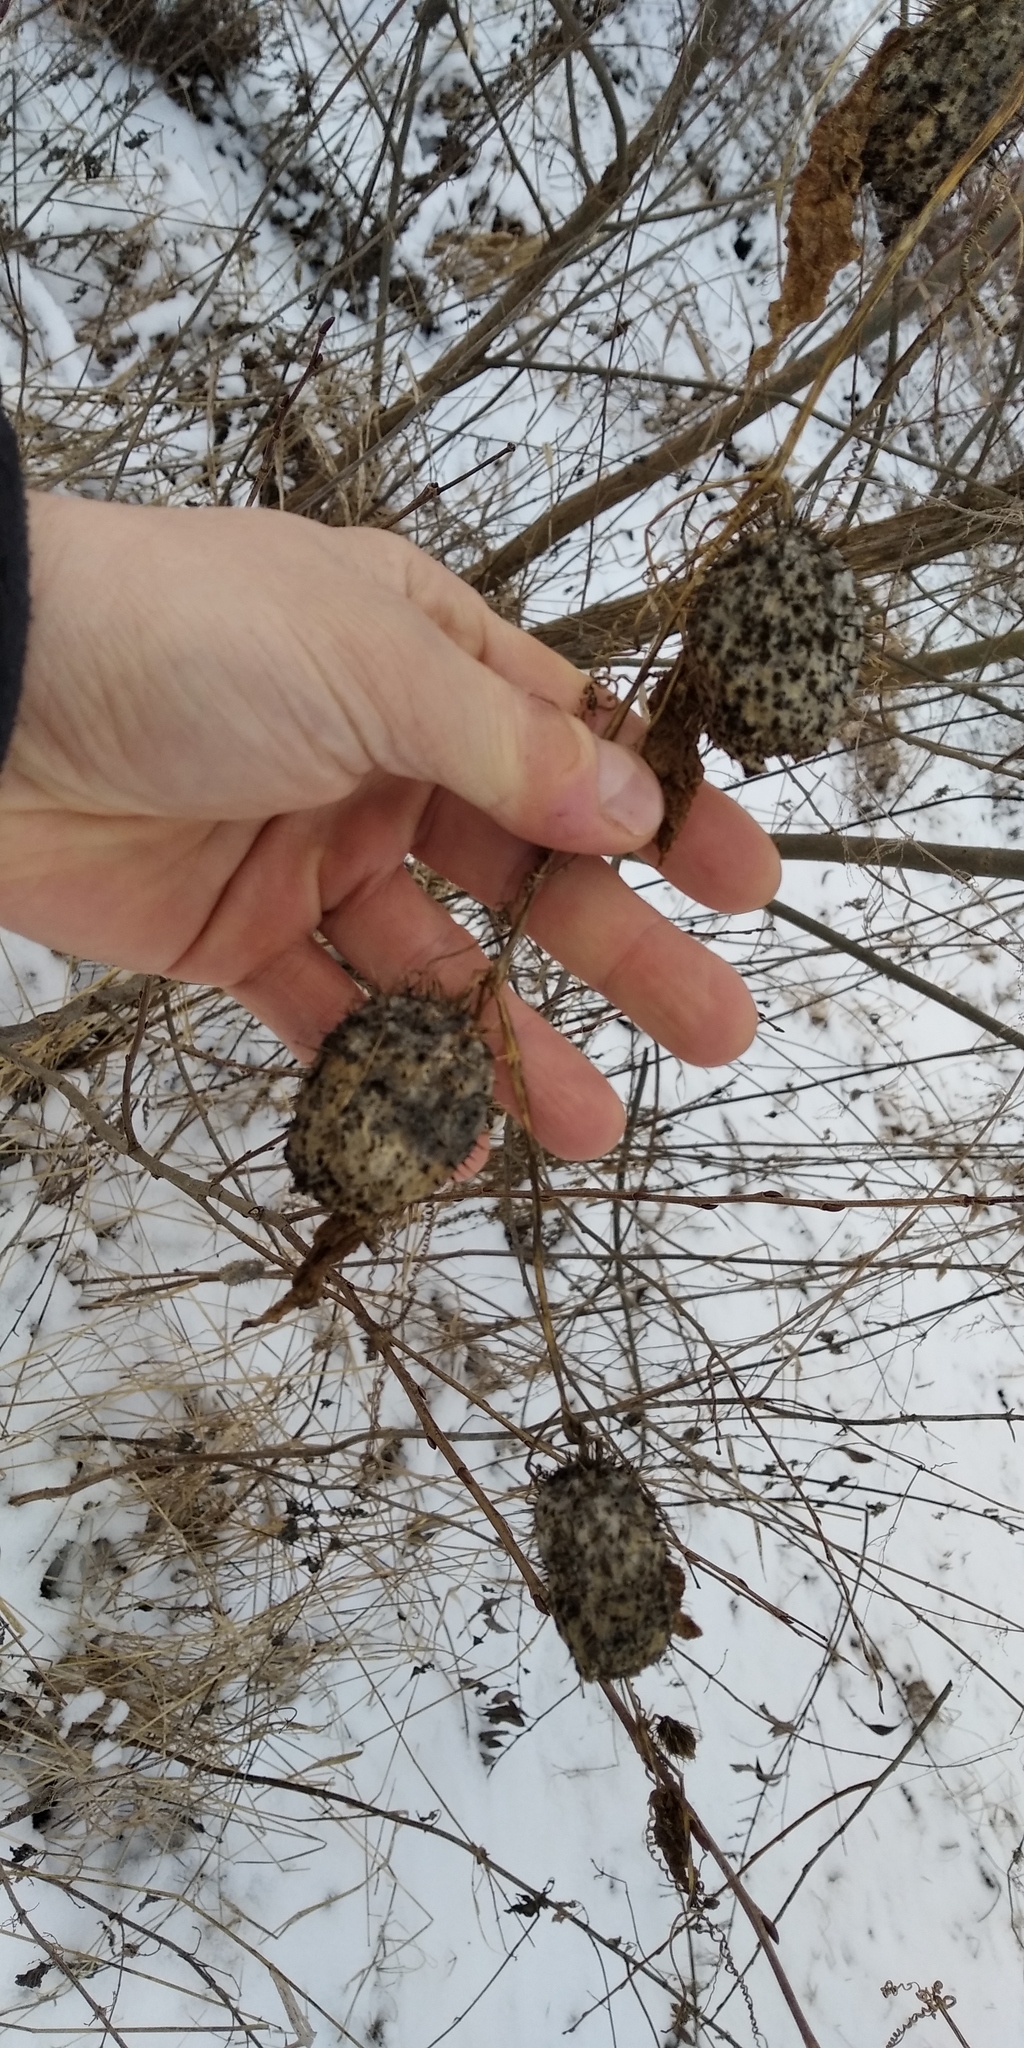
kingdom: Plantae
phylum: Tracheophyta
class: Magnoliopsida
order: Cucurbitales
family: Cucurbitaceae
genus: Echinocystis
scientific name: Echinocystis lobata
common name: Wild cucumber
